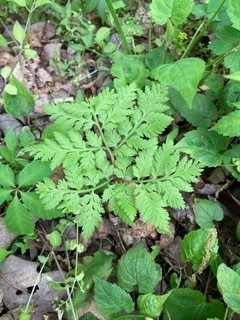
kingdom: Plantae
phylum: Tracheophyta
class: Polypodiopsida
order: Ophioglossales
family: Ophioglossaceae
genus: Botrypus
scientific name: Botrypus virginianus
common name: Common grapefern
